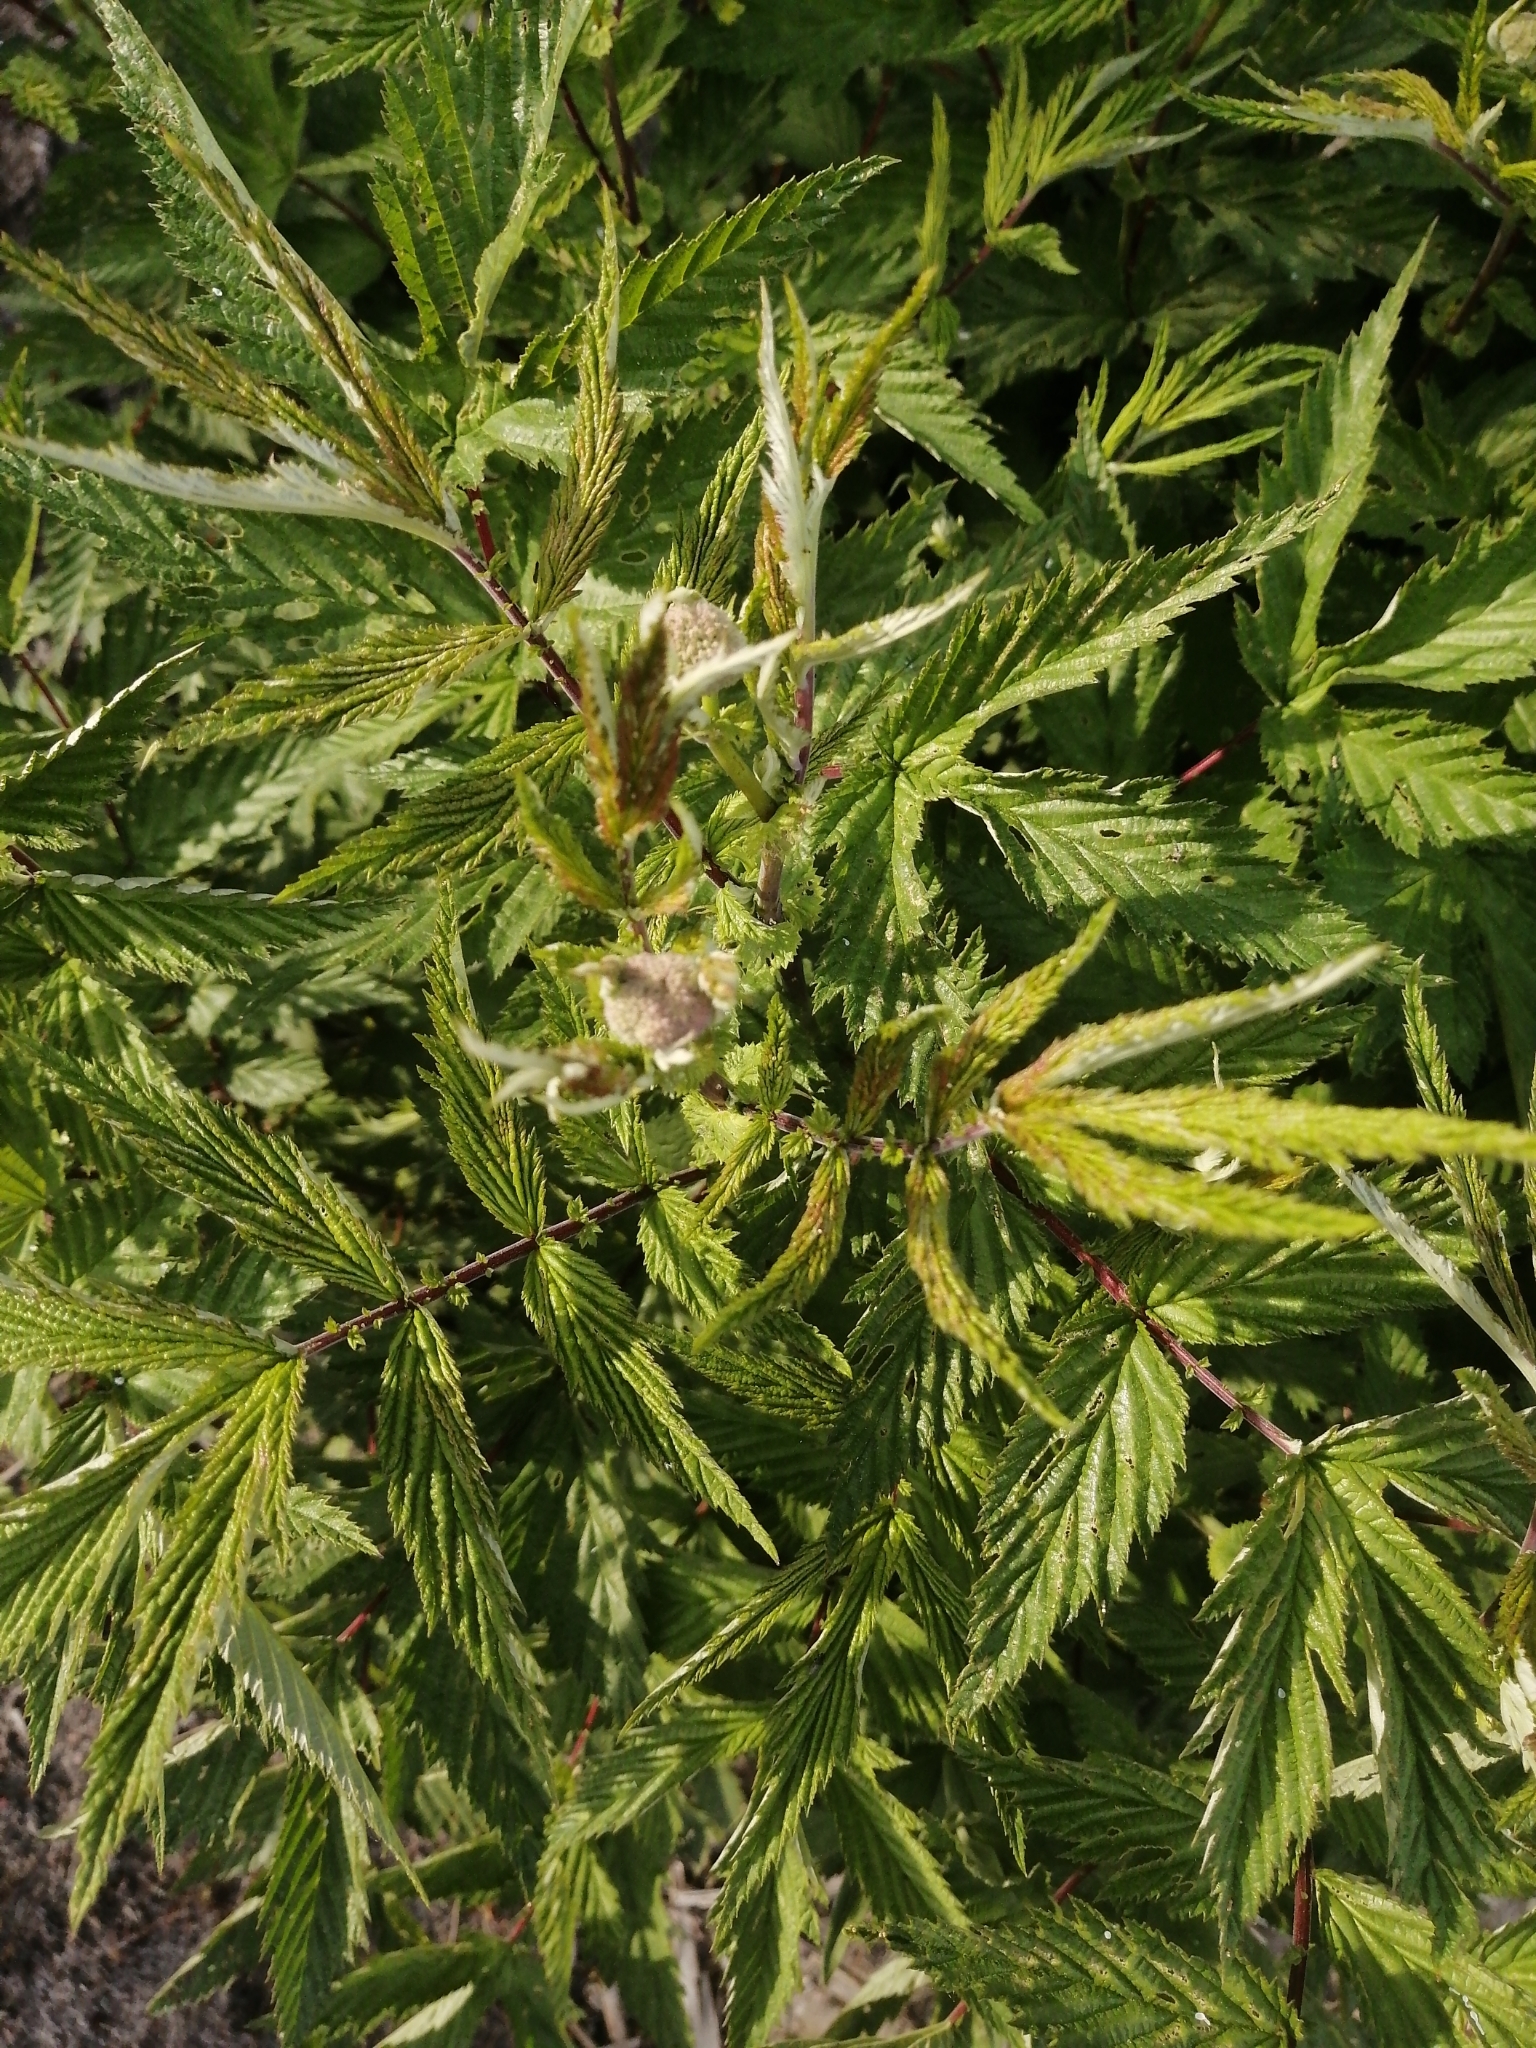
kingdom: Plantae
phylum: Tracheophyta
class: Magnoliopsida
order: Rosales
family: Rosaceae
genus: Filipendula
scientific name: Filipendula ulmaria
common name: Meadowsweet
